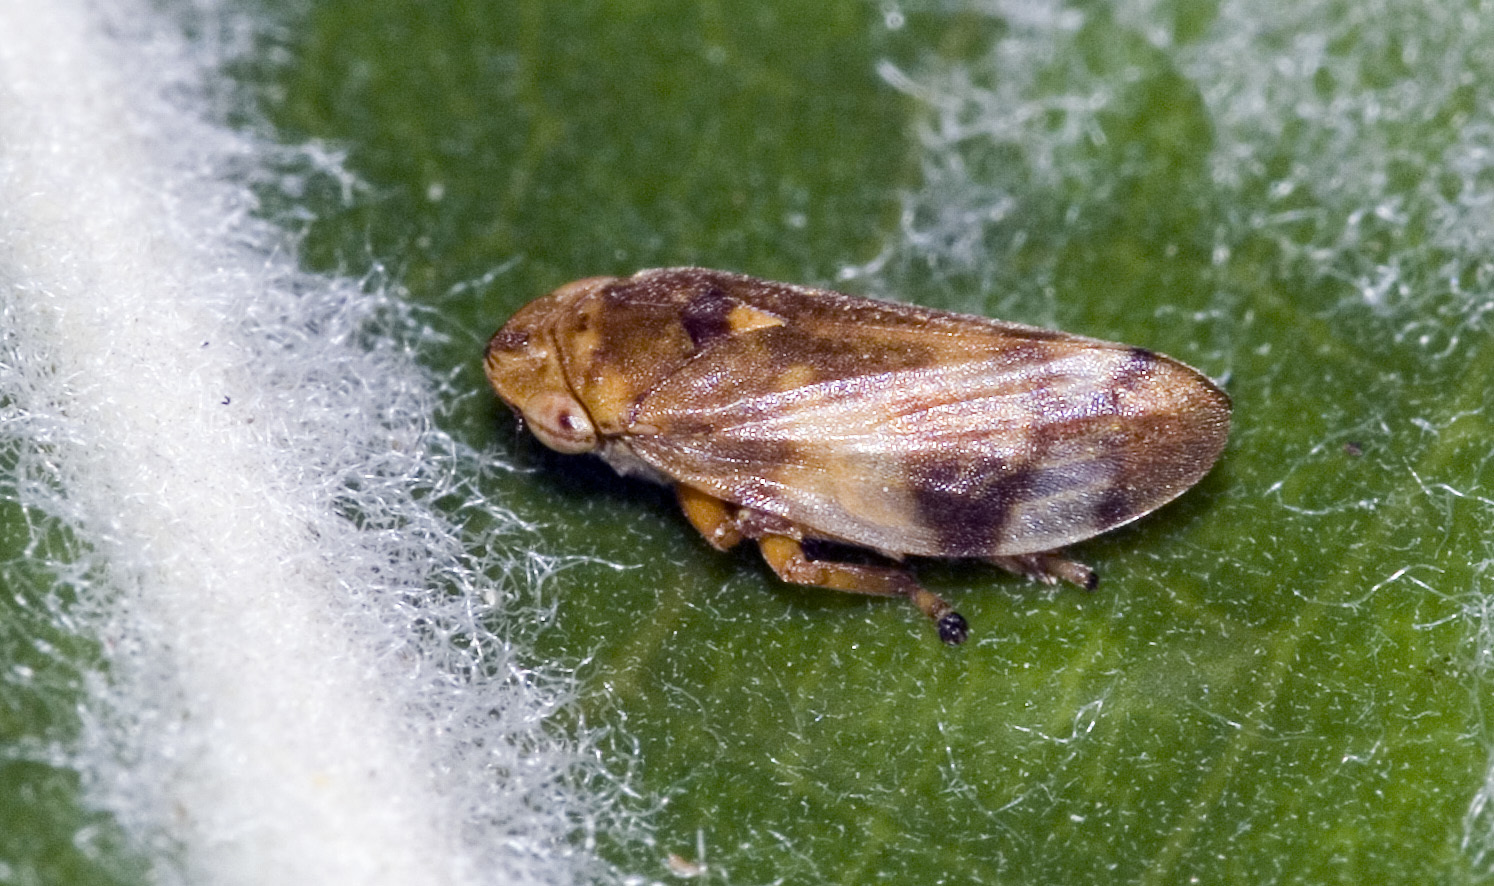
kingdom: Animalia
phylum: Arthropoda
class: Insecta
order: Hemiptera
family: Aphrophoridae
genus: Philaenus
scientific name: Philaenus spumarius
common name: Meadow spittlebug
